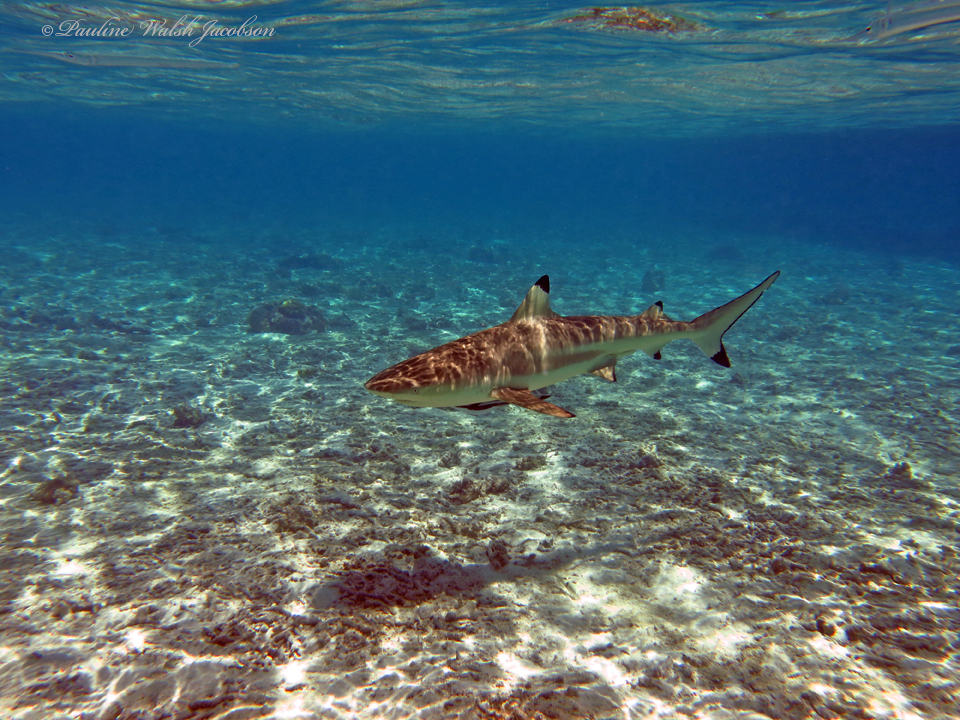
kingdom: Animalia
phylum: Chordata
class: Elasmobranchii
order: Carcharhiniformes
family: Carcharhinidae
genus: Carcharhinus
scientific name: Carcharhinus melanopterus
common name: Blacktip reef shark
